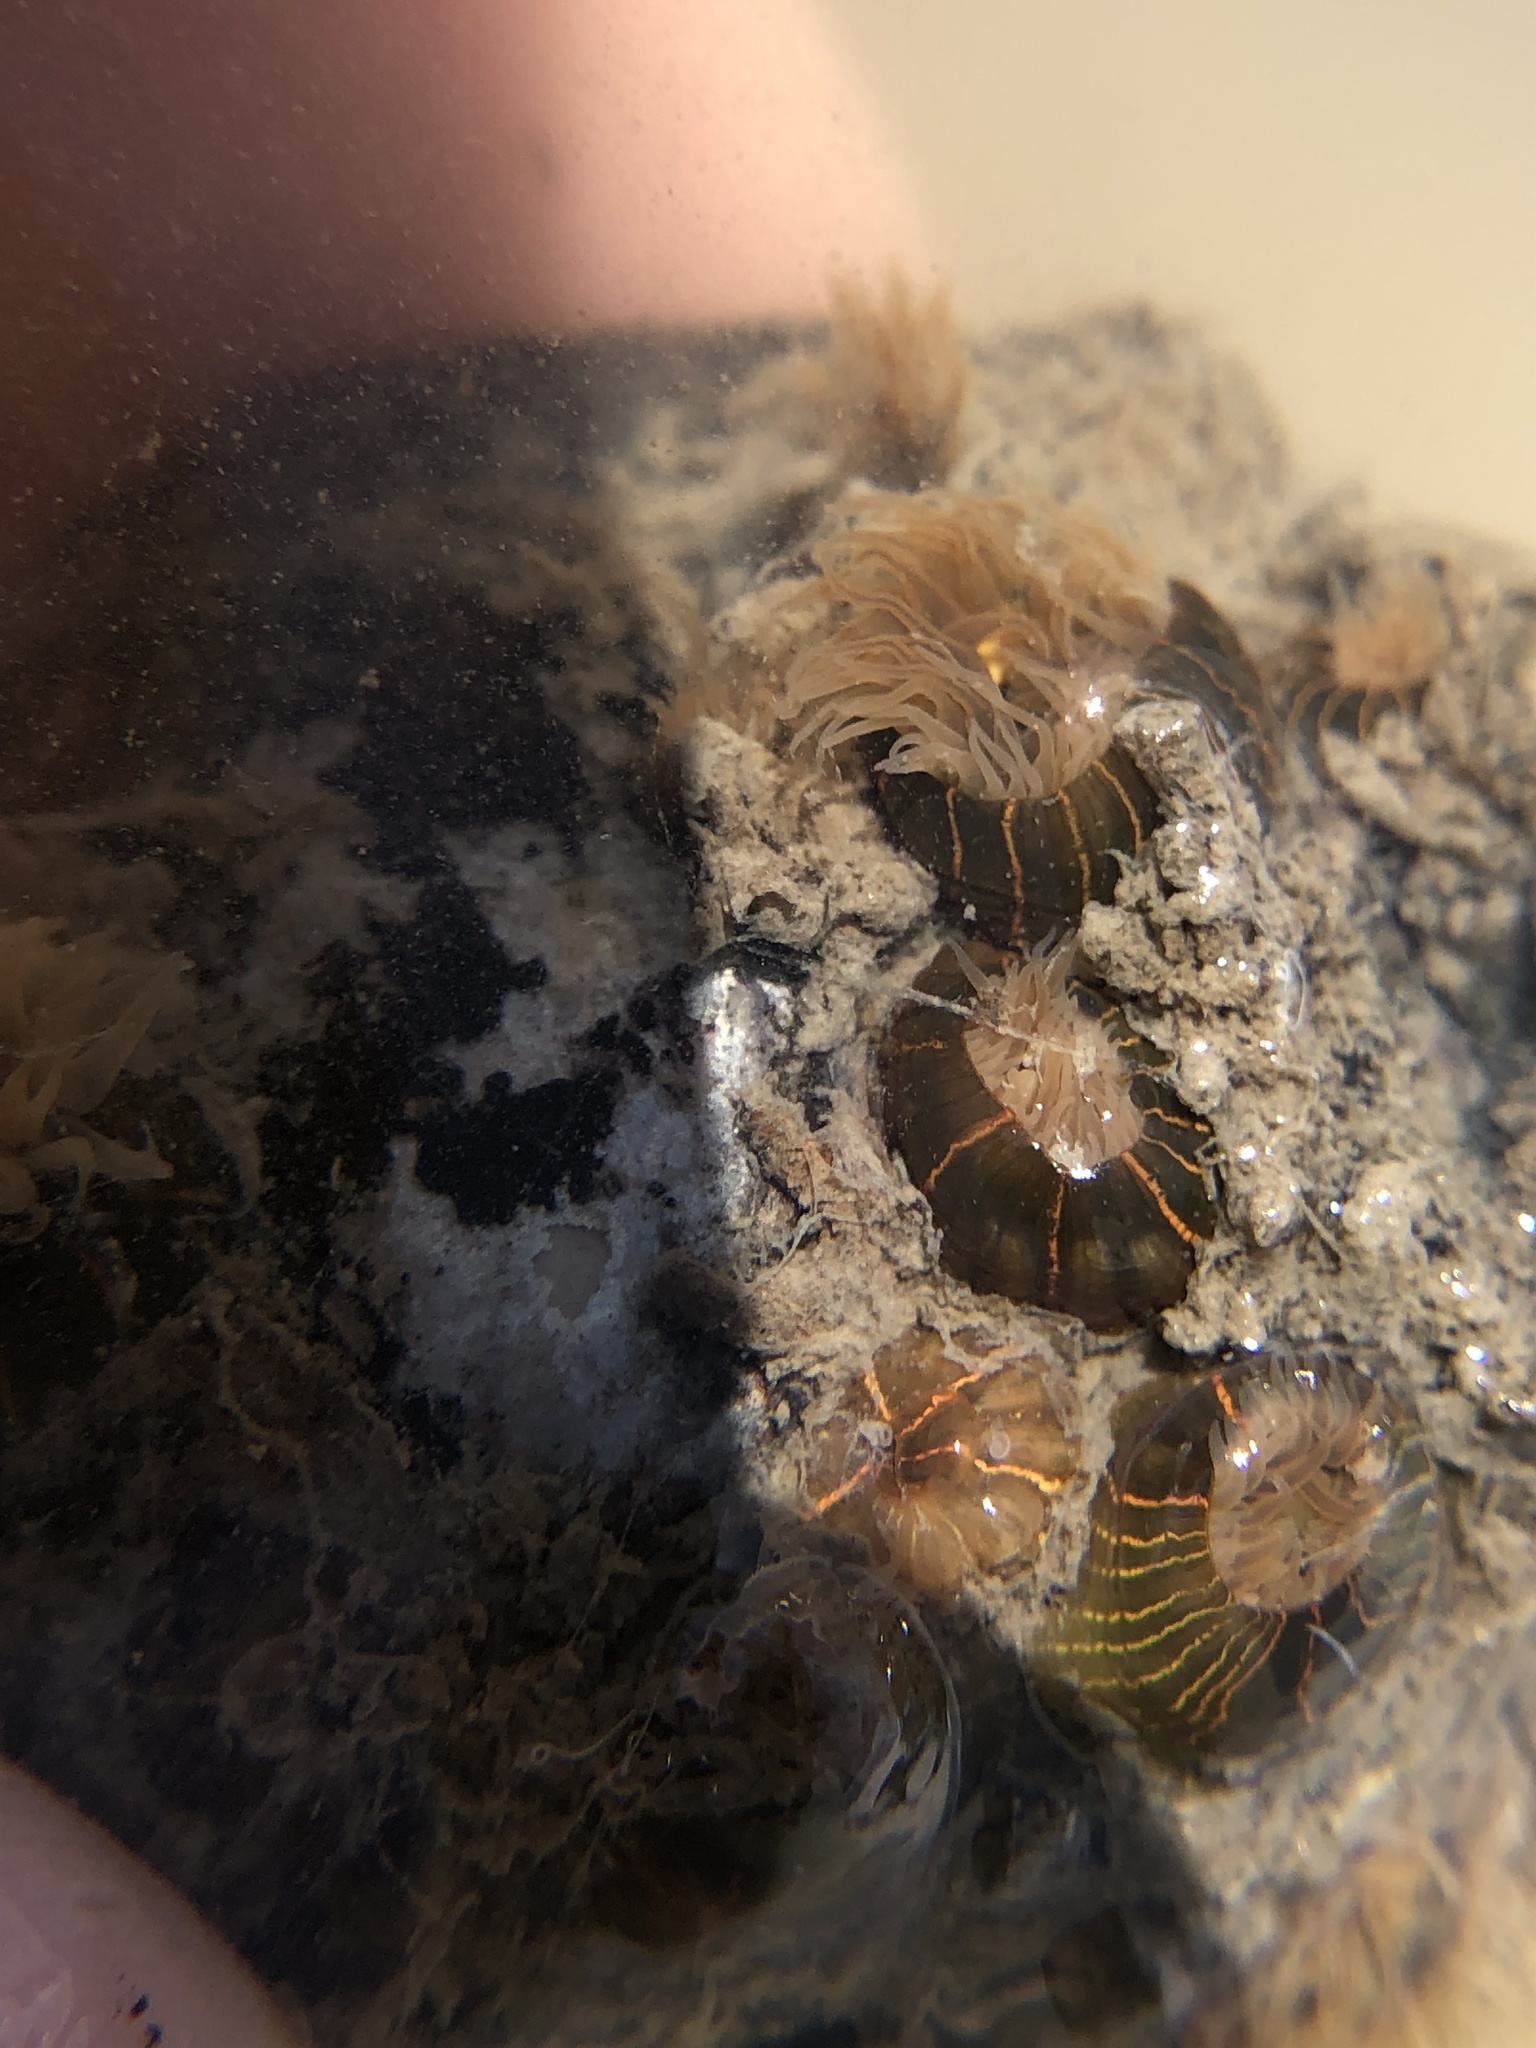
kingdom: Animalia
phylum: Cnidaria
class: Anthozoa
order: Actiniaria
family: Diadumenidae
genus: Diadumene
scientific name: Diadumene lineata
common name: Orange-striped anemone
